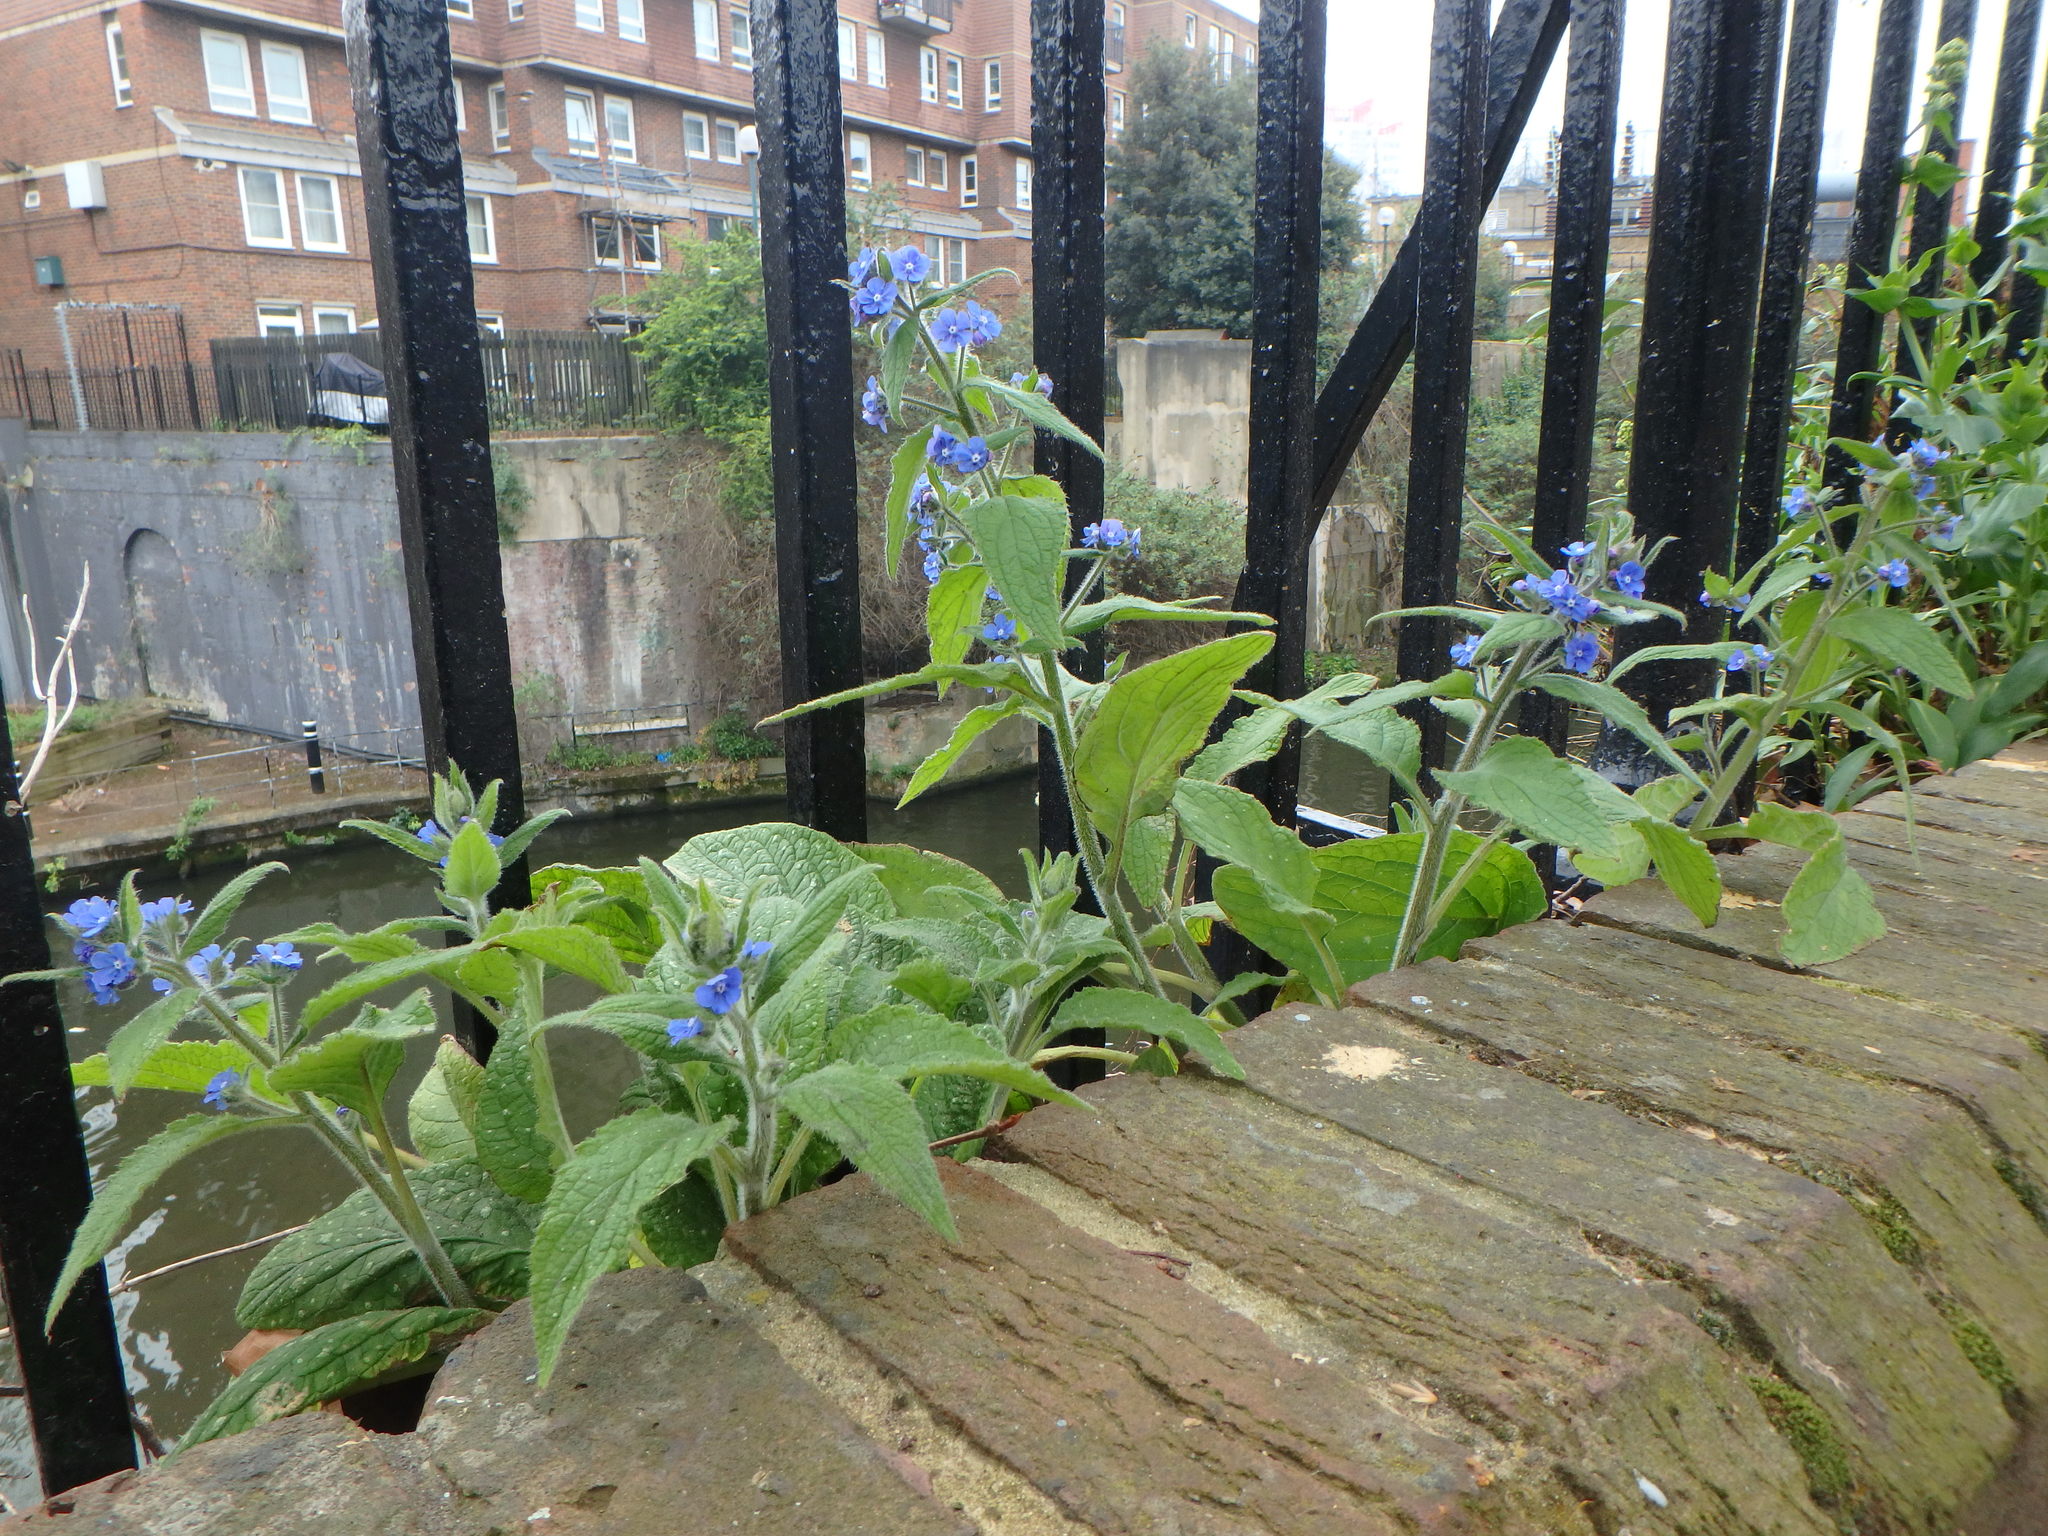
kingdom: Plantae
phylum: Tracheophyta
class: Magnoliopsida
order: Boraginales
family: Boraginaceae
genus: Pentaglottis
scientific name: Pentaglottis sempervirens
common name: Green alkanet
